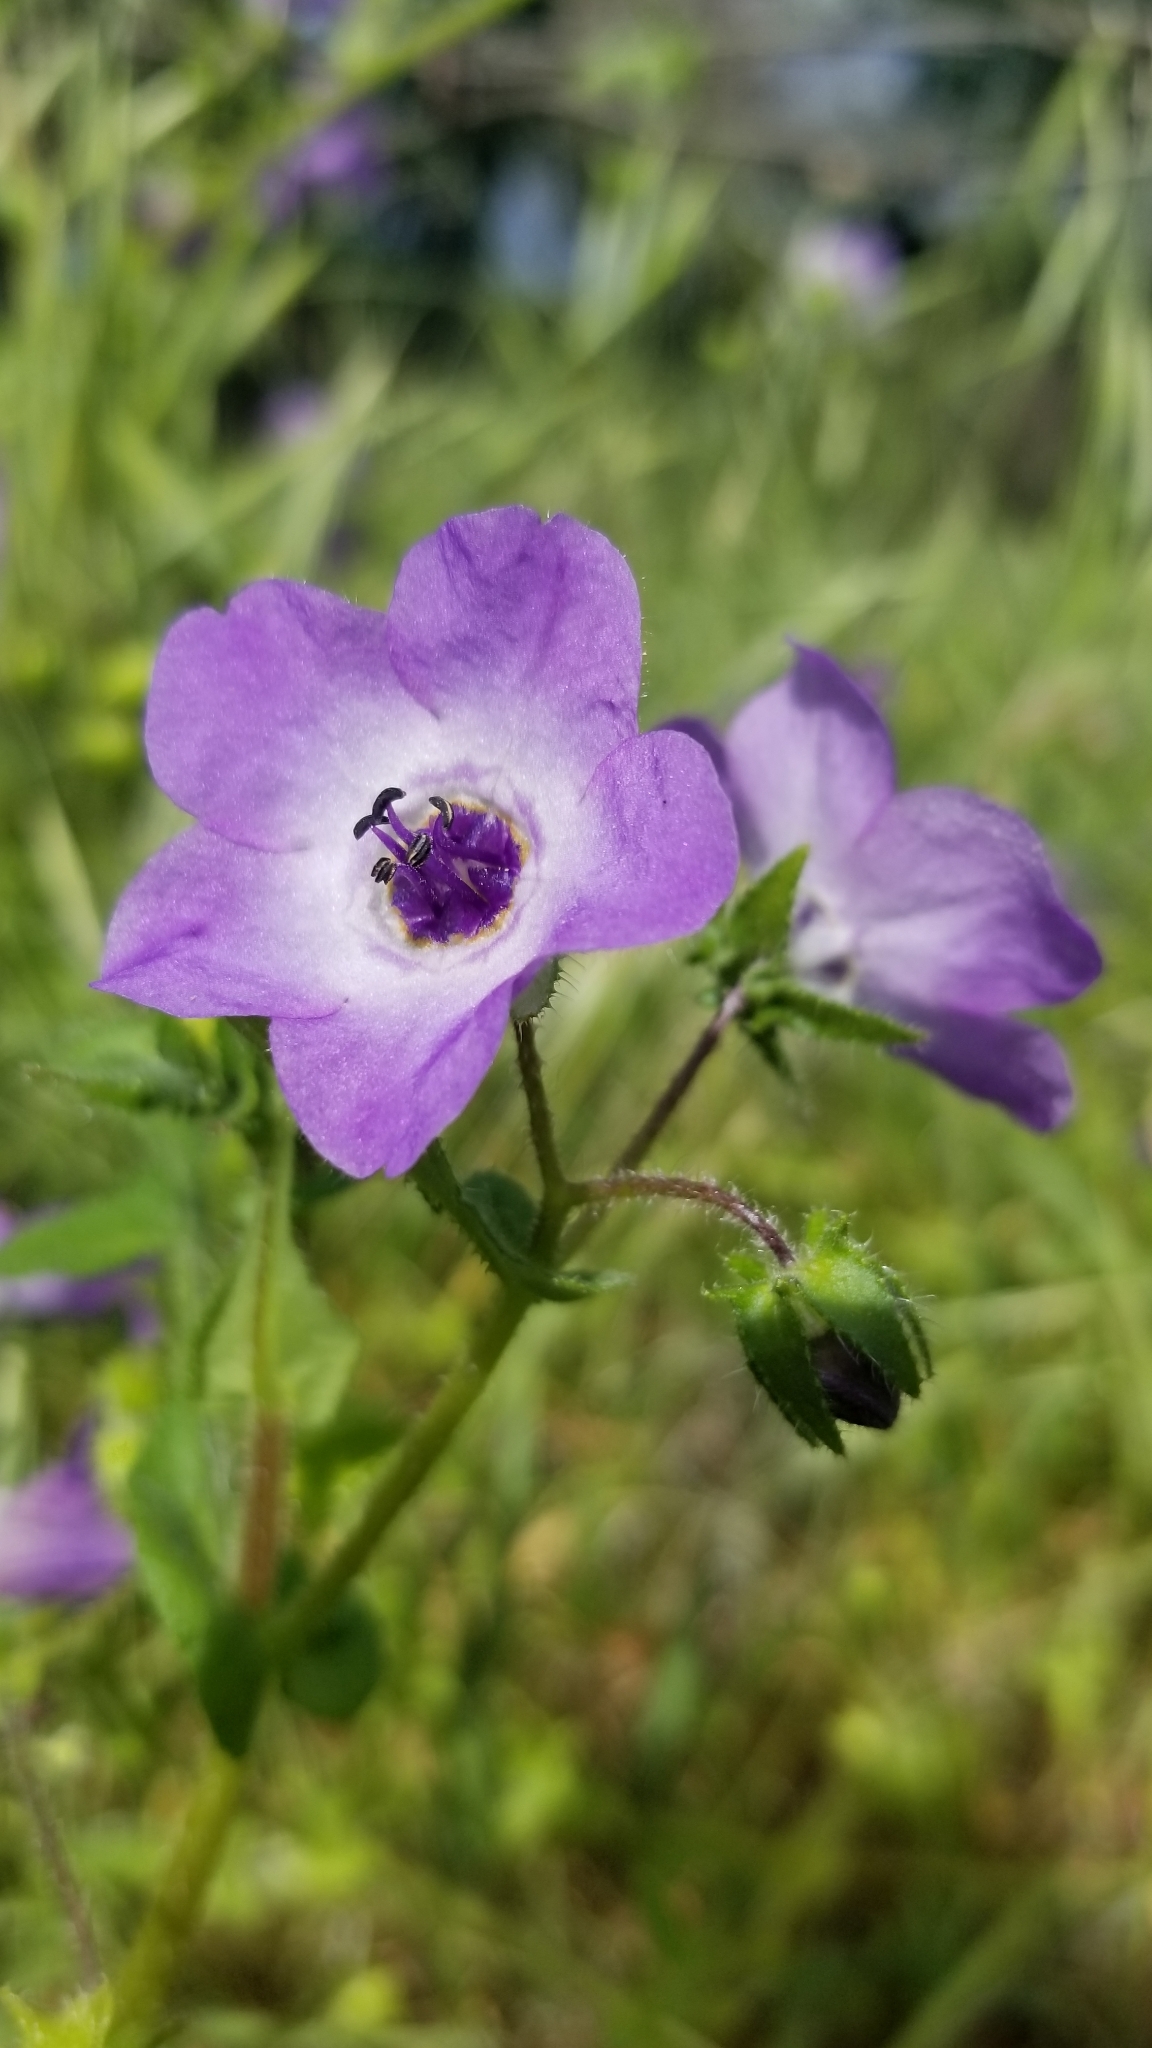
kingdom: Plantae
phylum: Tracheophyta
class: Magnoliopsida
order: Boraginales
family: Hydrophyllaceae
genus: Pholistoma
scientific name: Pholistoma auritum
